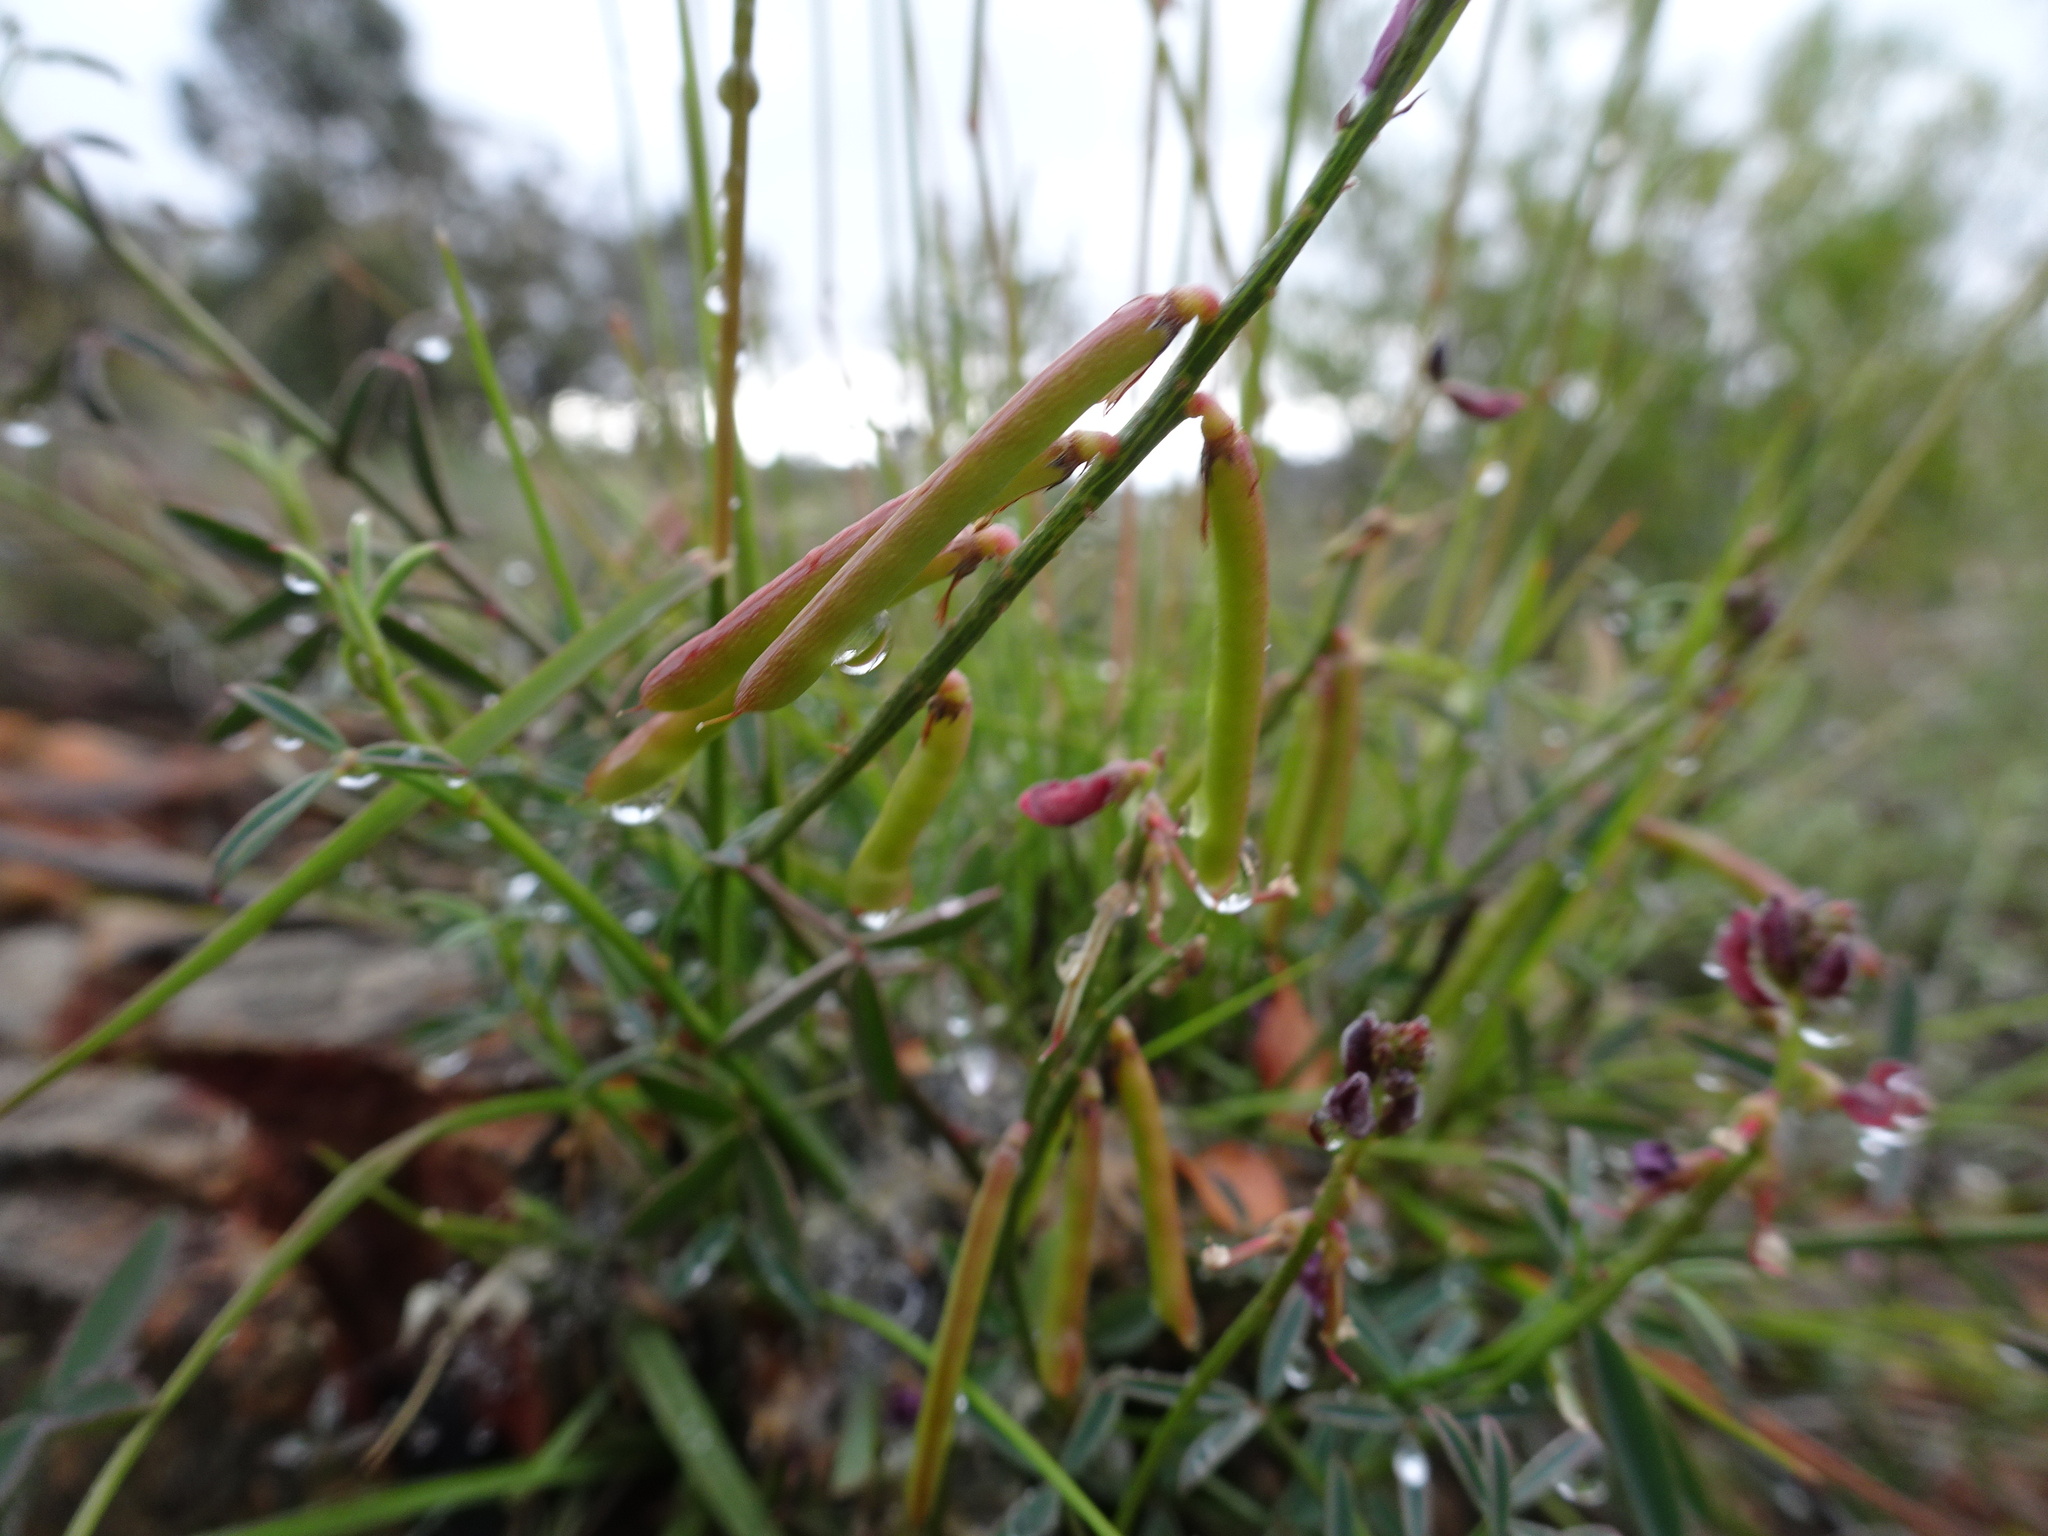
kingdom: Plantae
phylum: Tracheophyta
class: Magnoliopsida
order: Fabales
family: Fabaceae
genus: Indigofera
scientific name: Indigofera heterophylla
